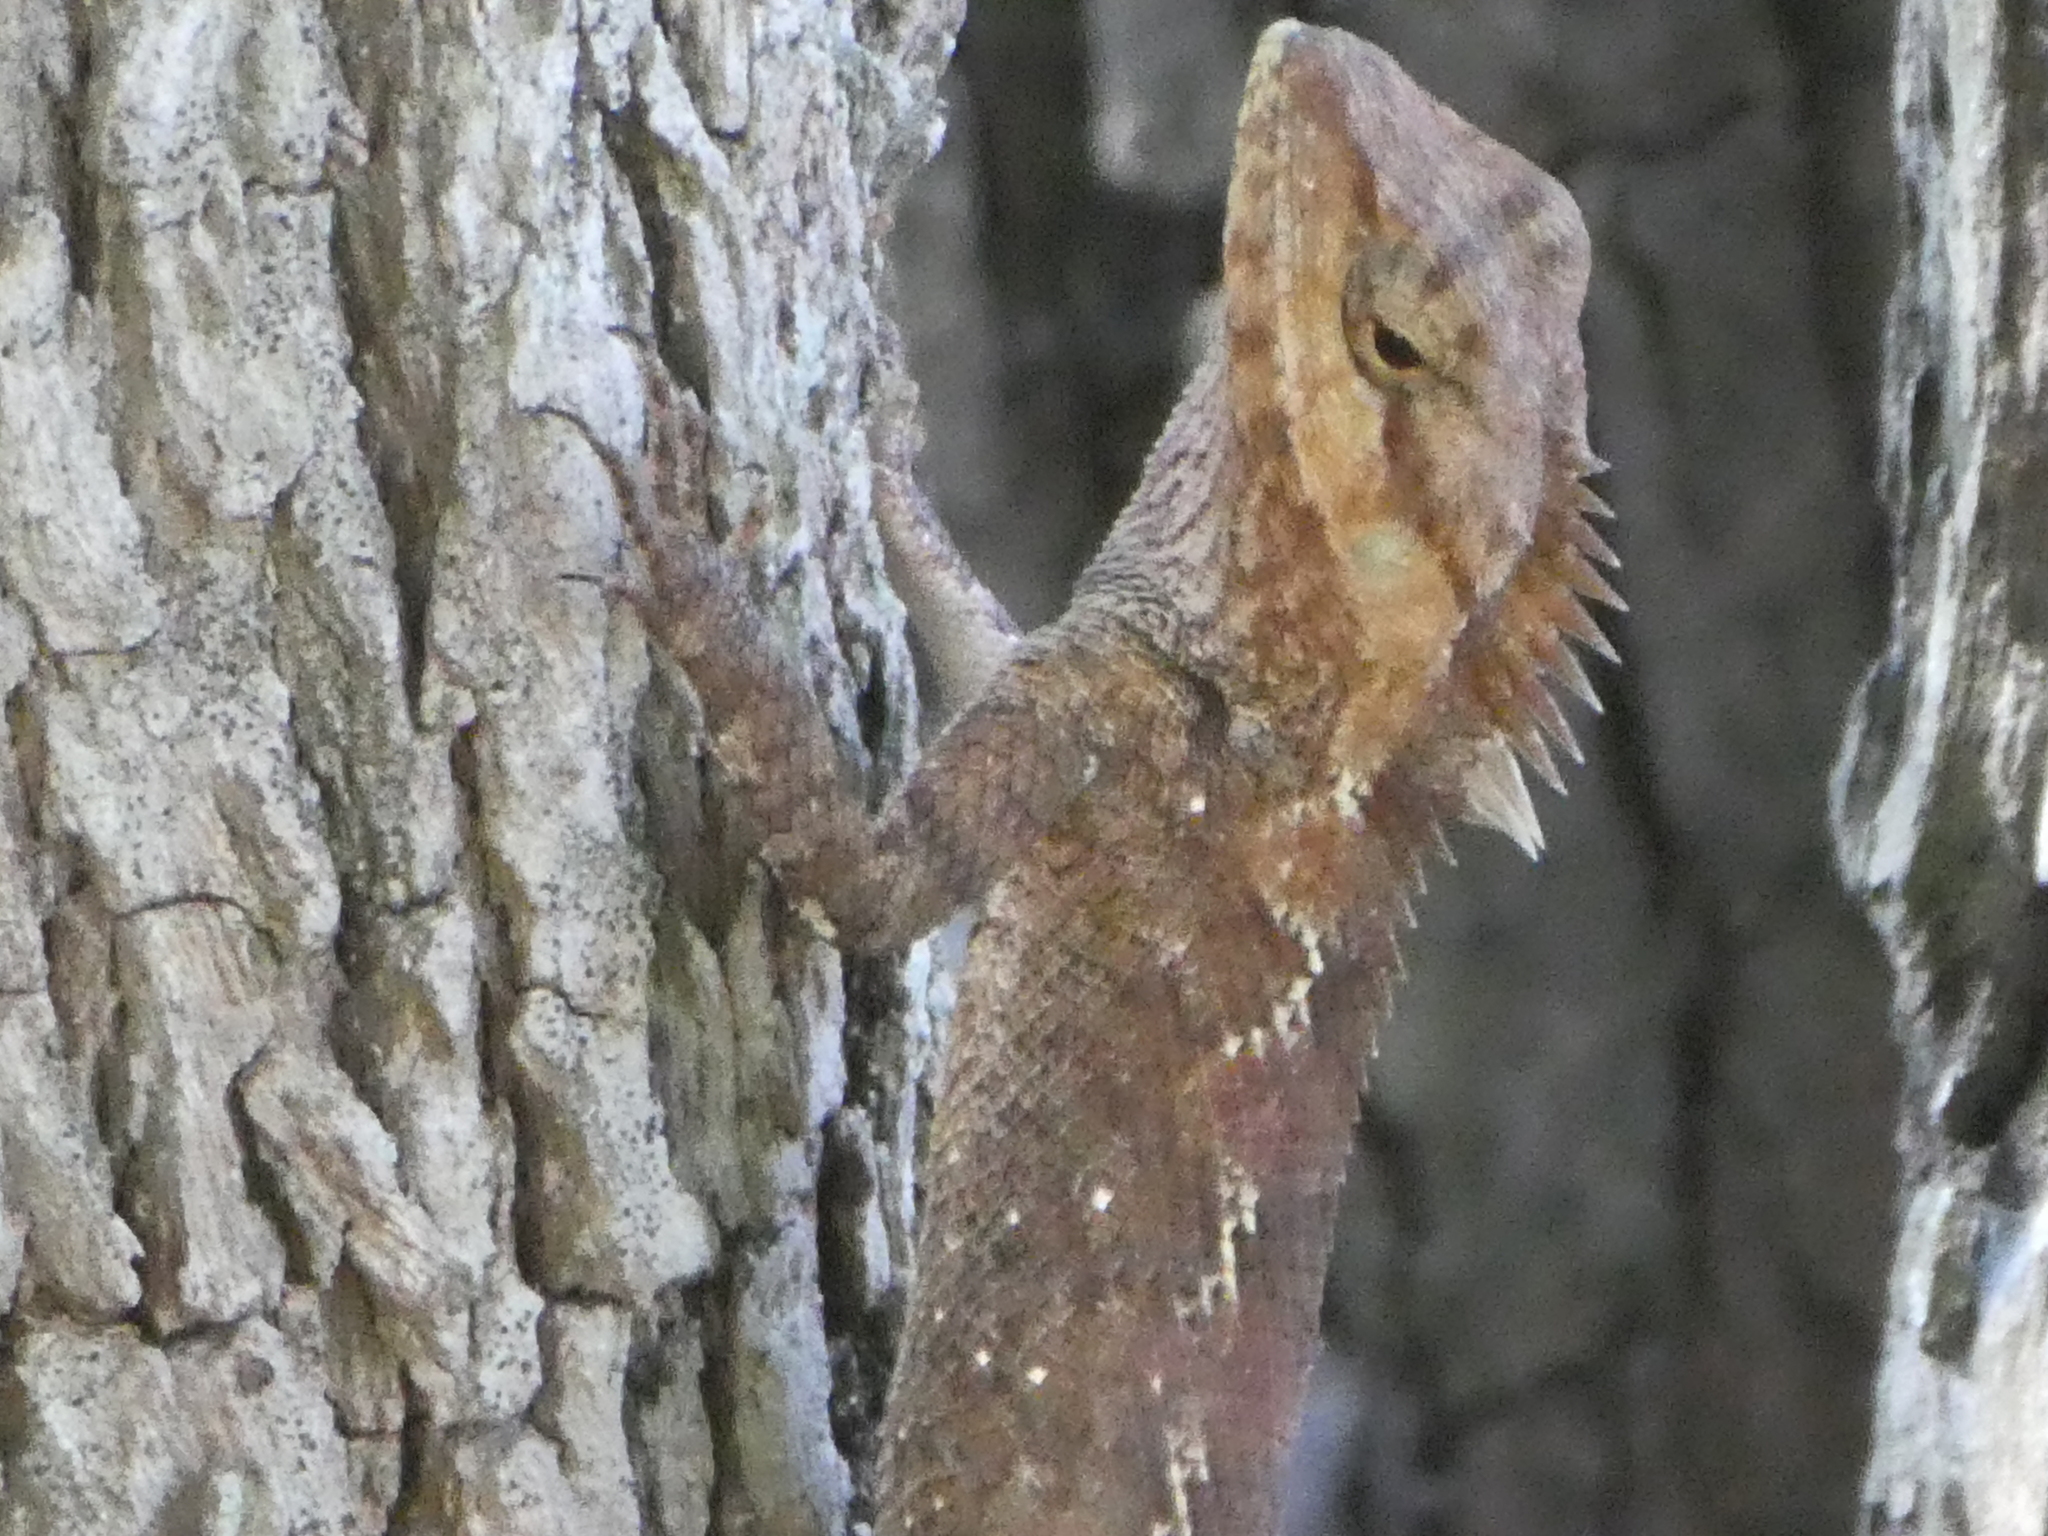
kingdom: Animalia
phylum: Chordata
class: Squamata
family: Agamidae
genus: Calotes
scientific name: Calotes goetzi
